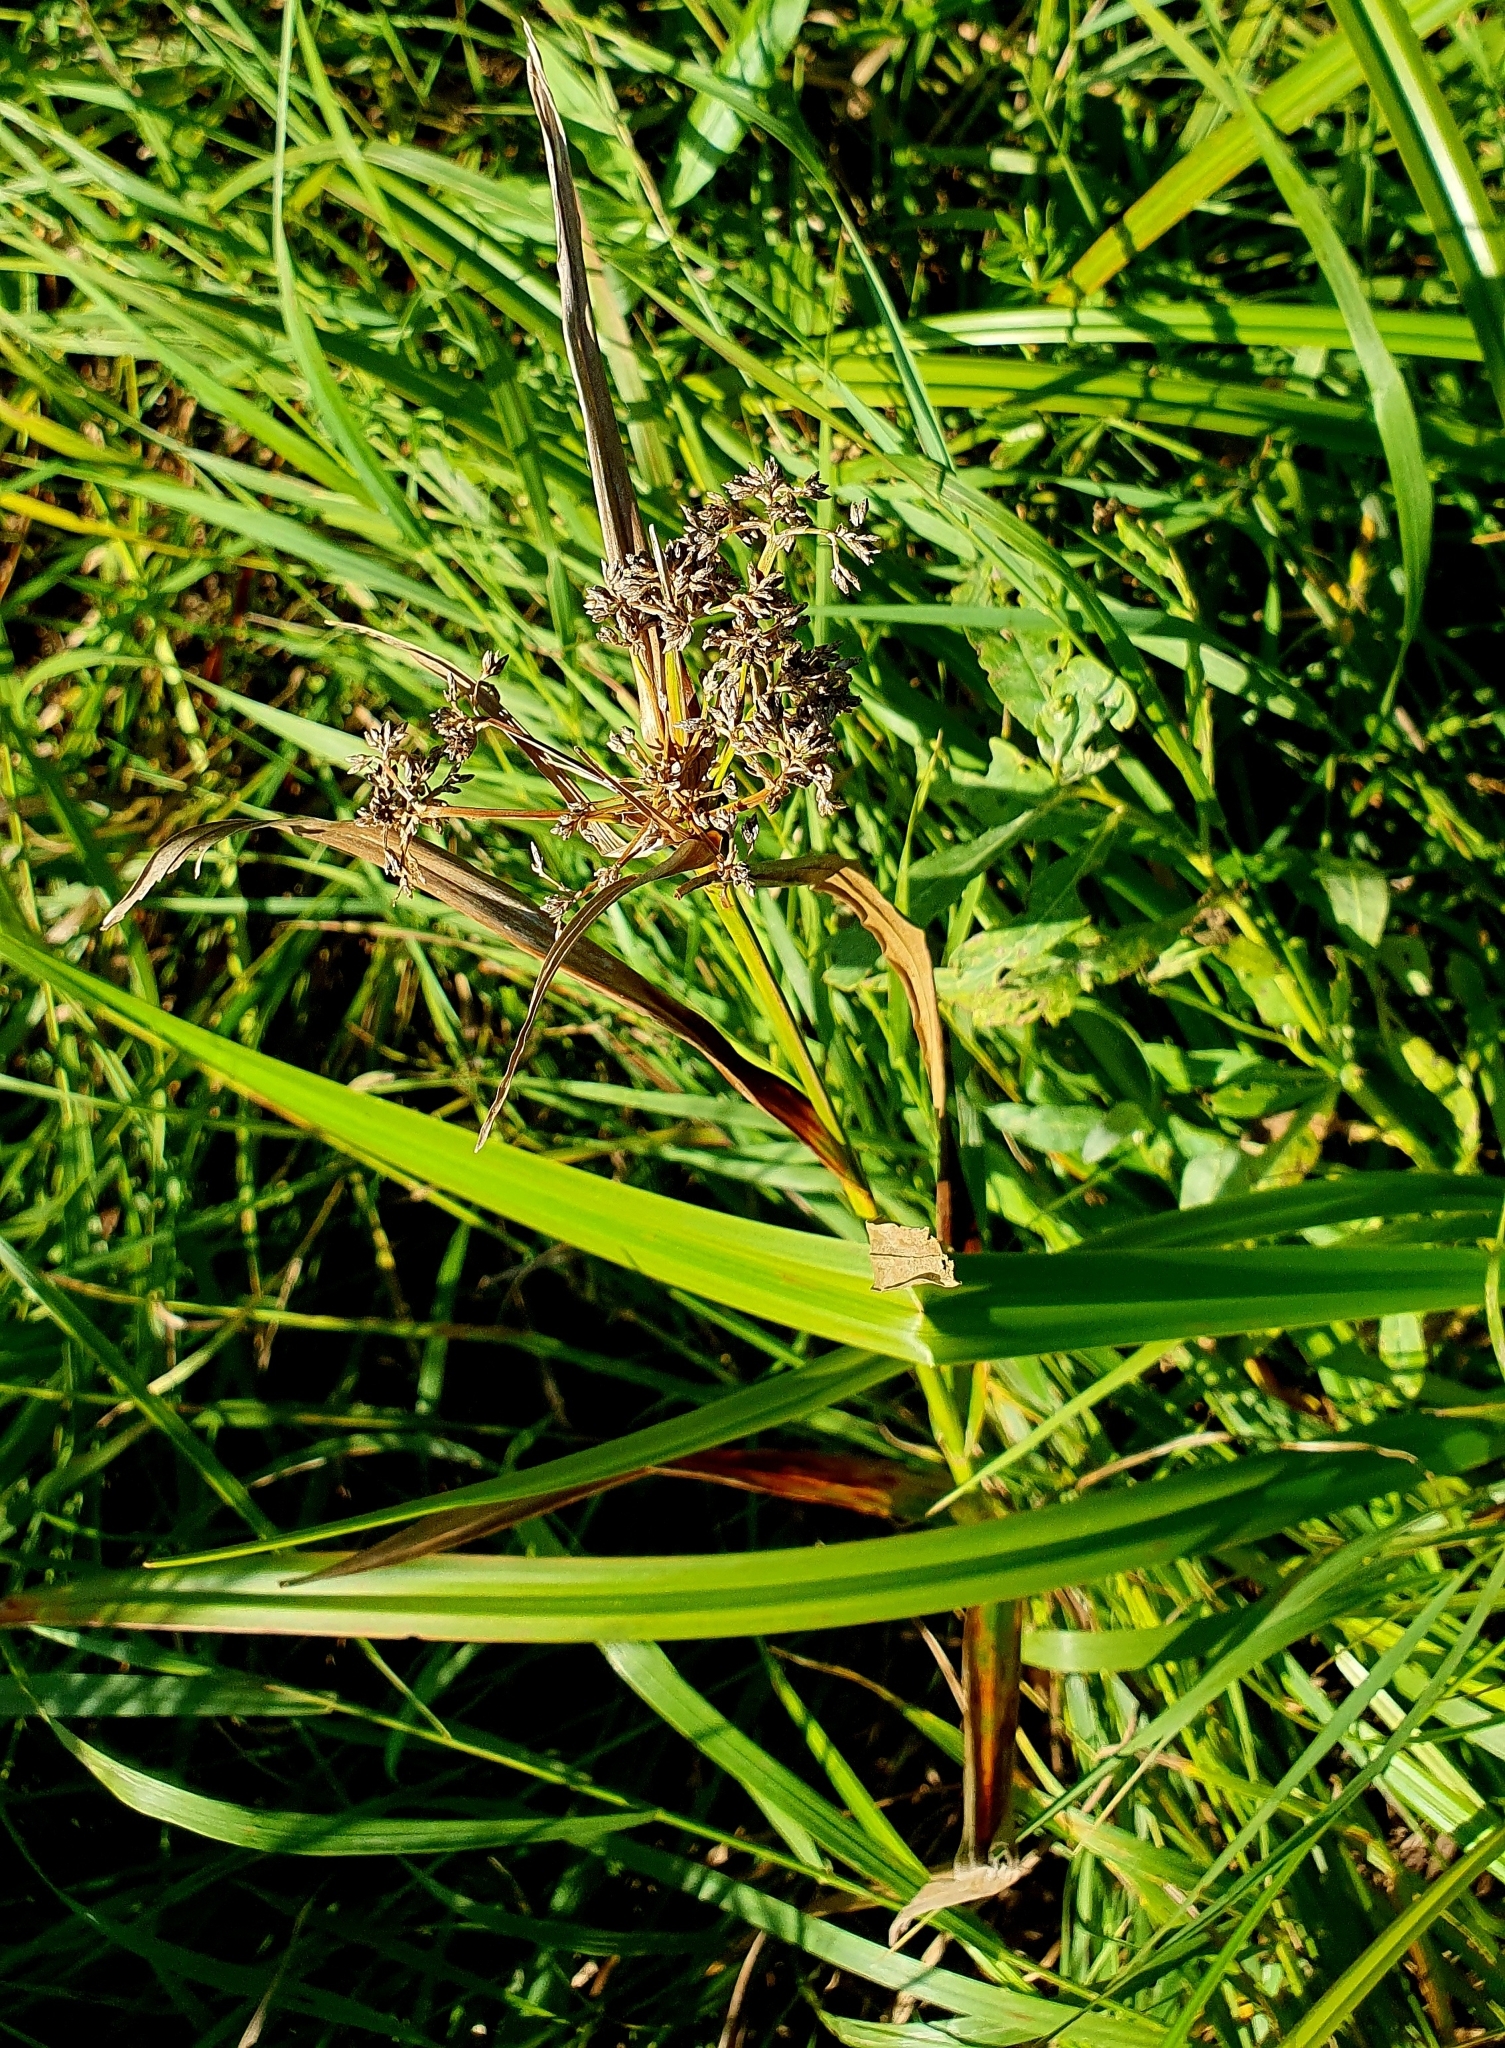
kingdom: Plantae
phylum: Tracheophyta
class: Liliopsida
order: Poales
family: Cyperaceae
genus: Scirpus
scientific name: Scirpus sylvaticus
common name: Wood club-rush
